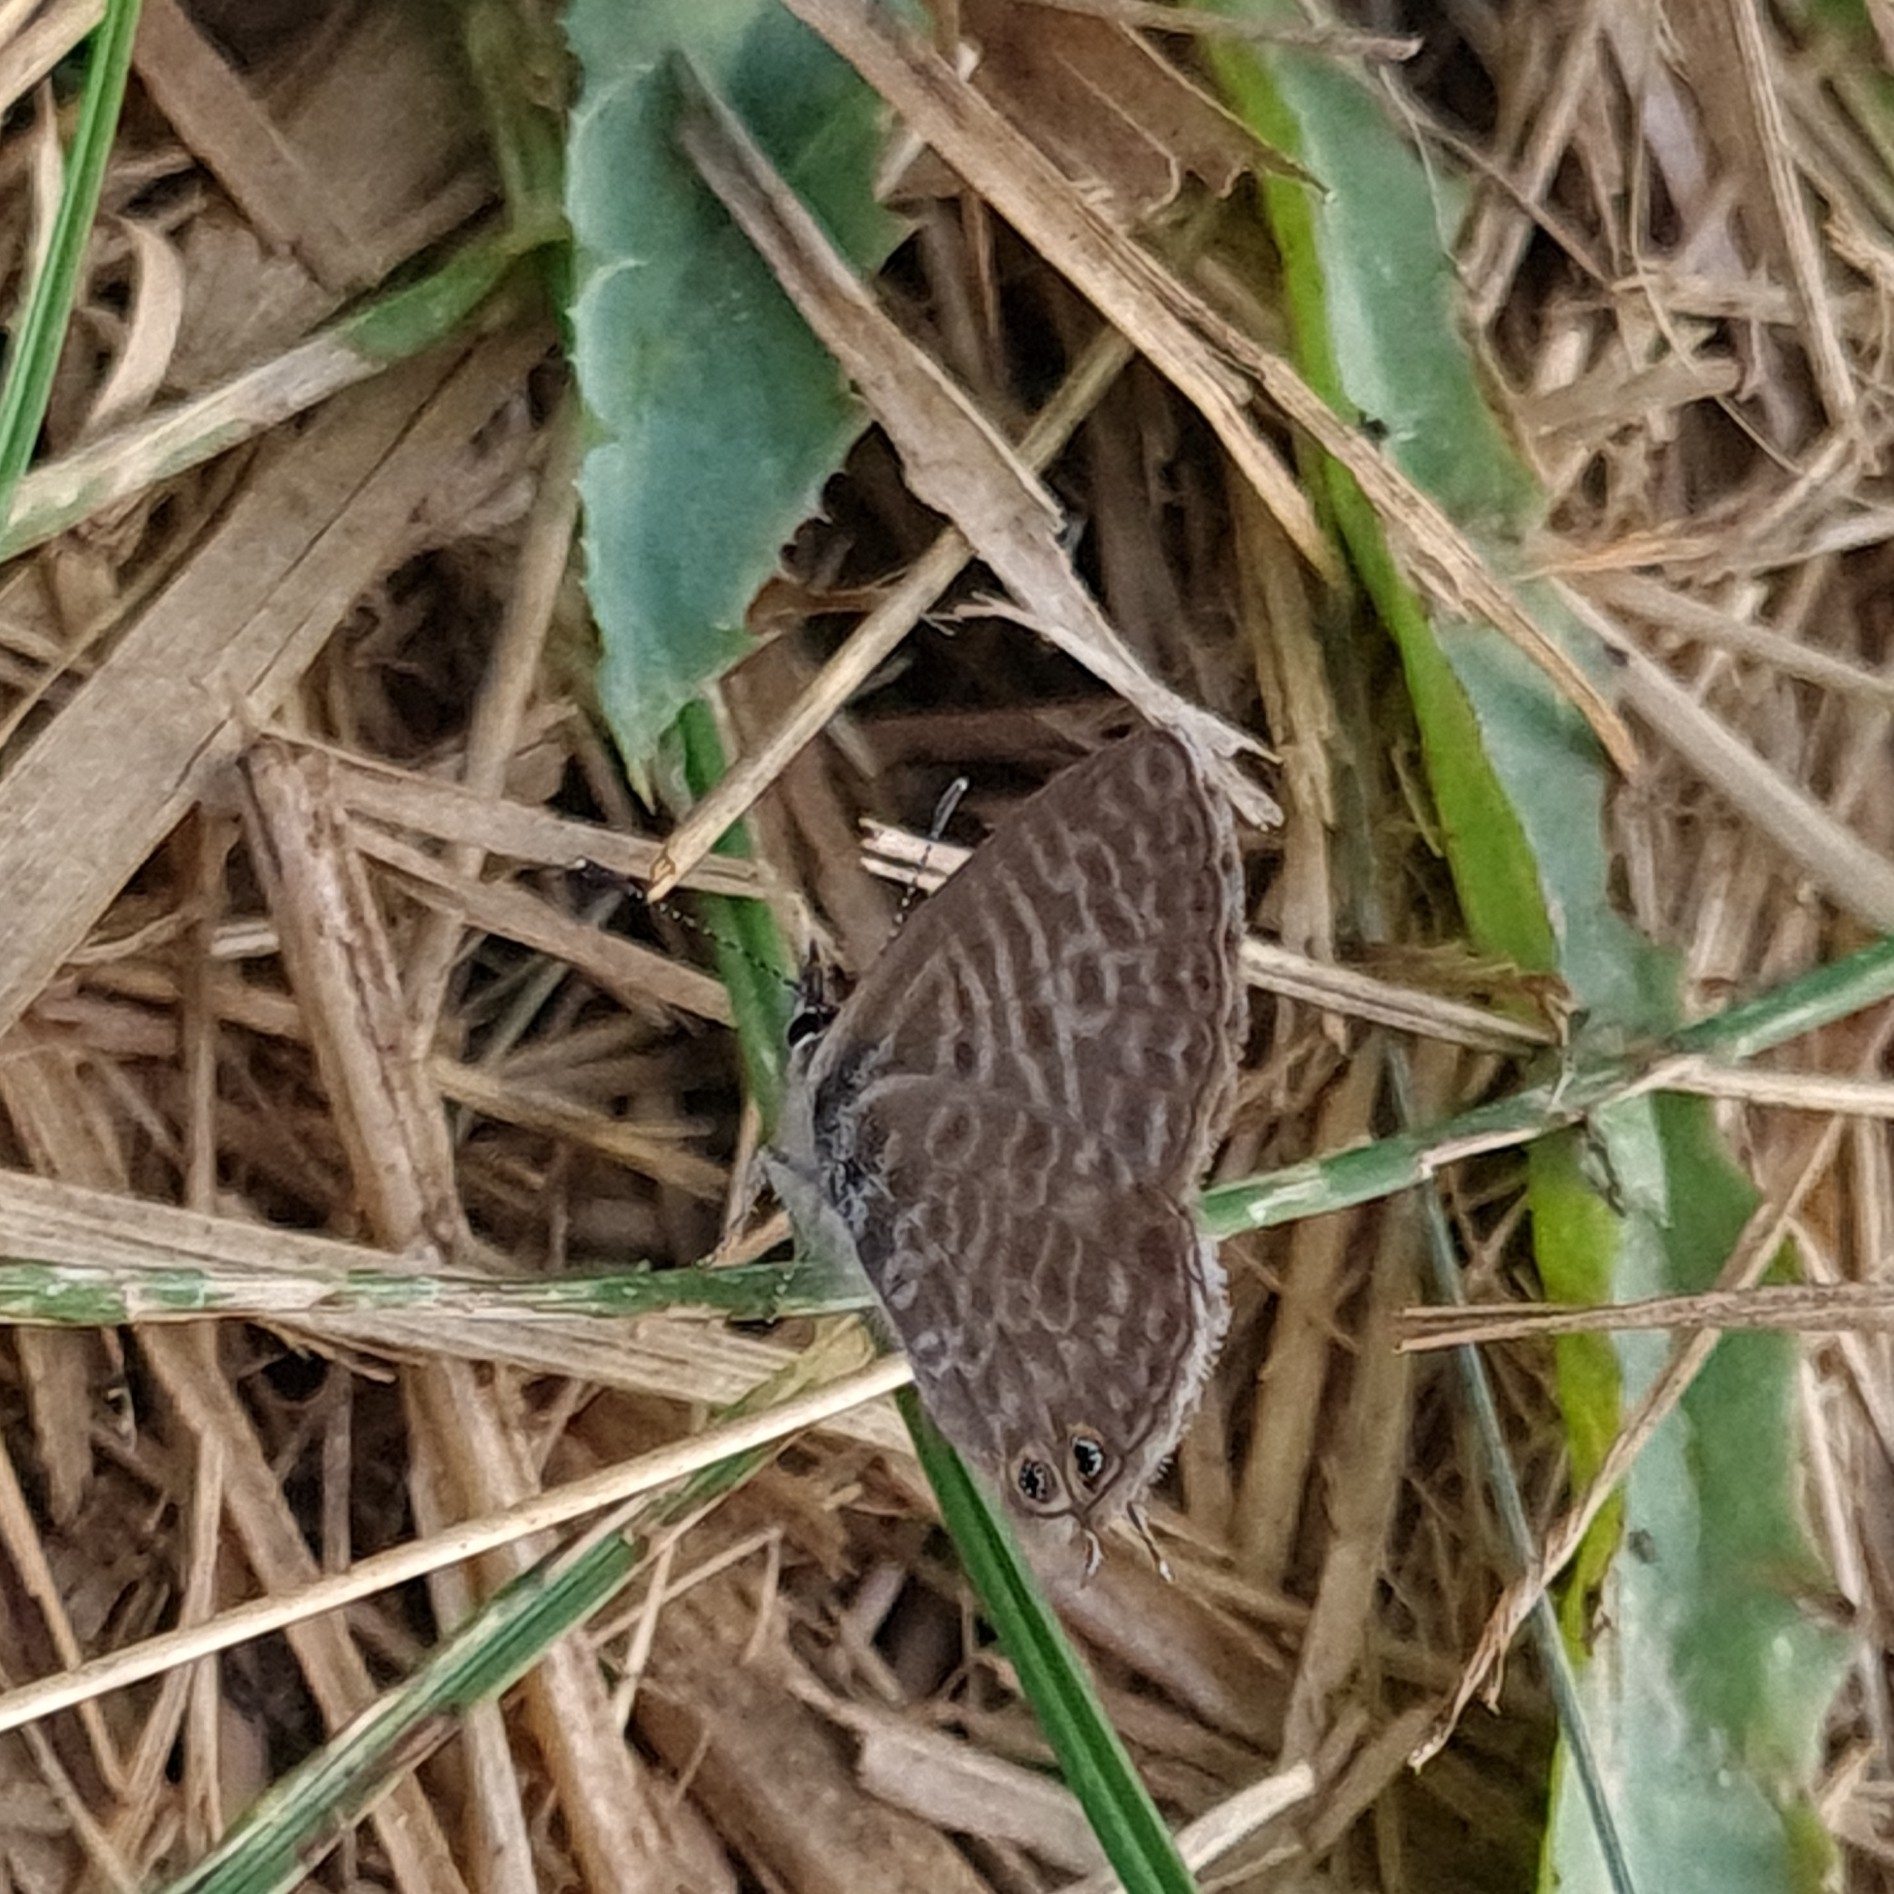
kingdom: Animalia
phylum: Arthropoda
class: Insecta
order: Lepidoptera
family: Lycaenidae
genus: Leptotes
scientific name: Leptotes pirithous
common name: Lang's short-tailed blue
